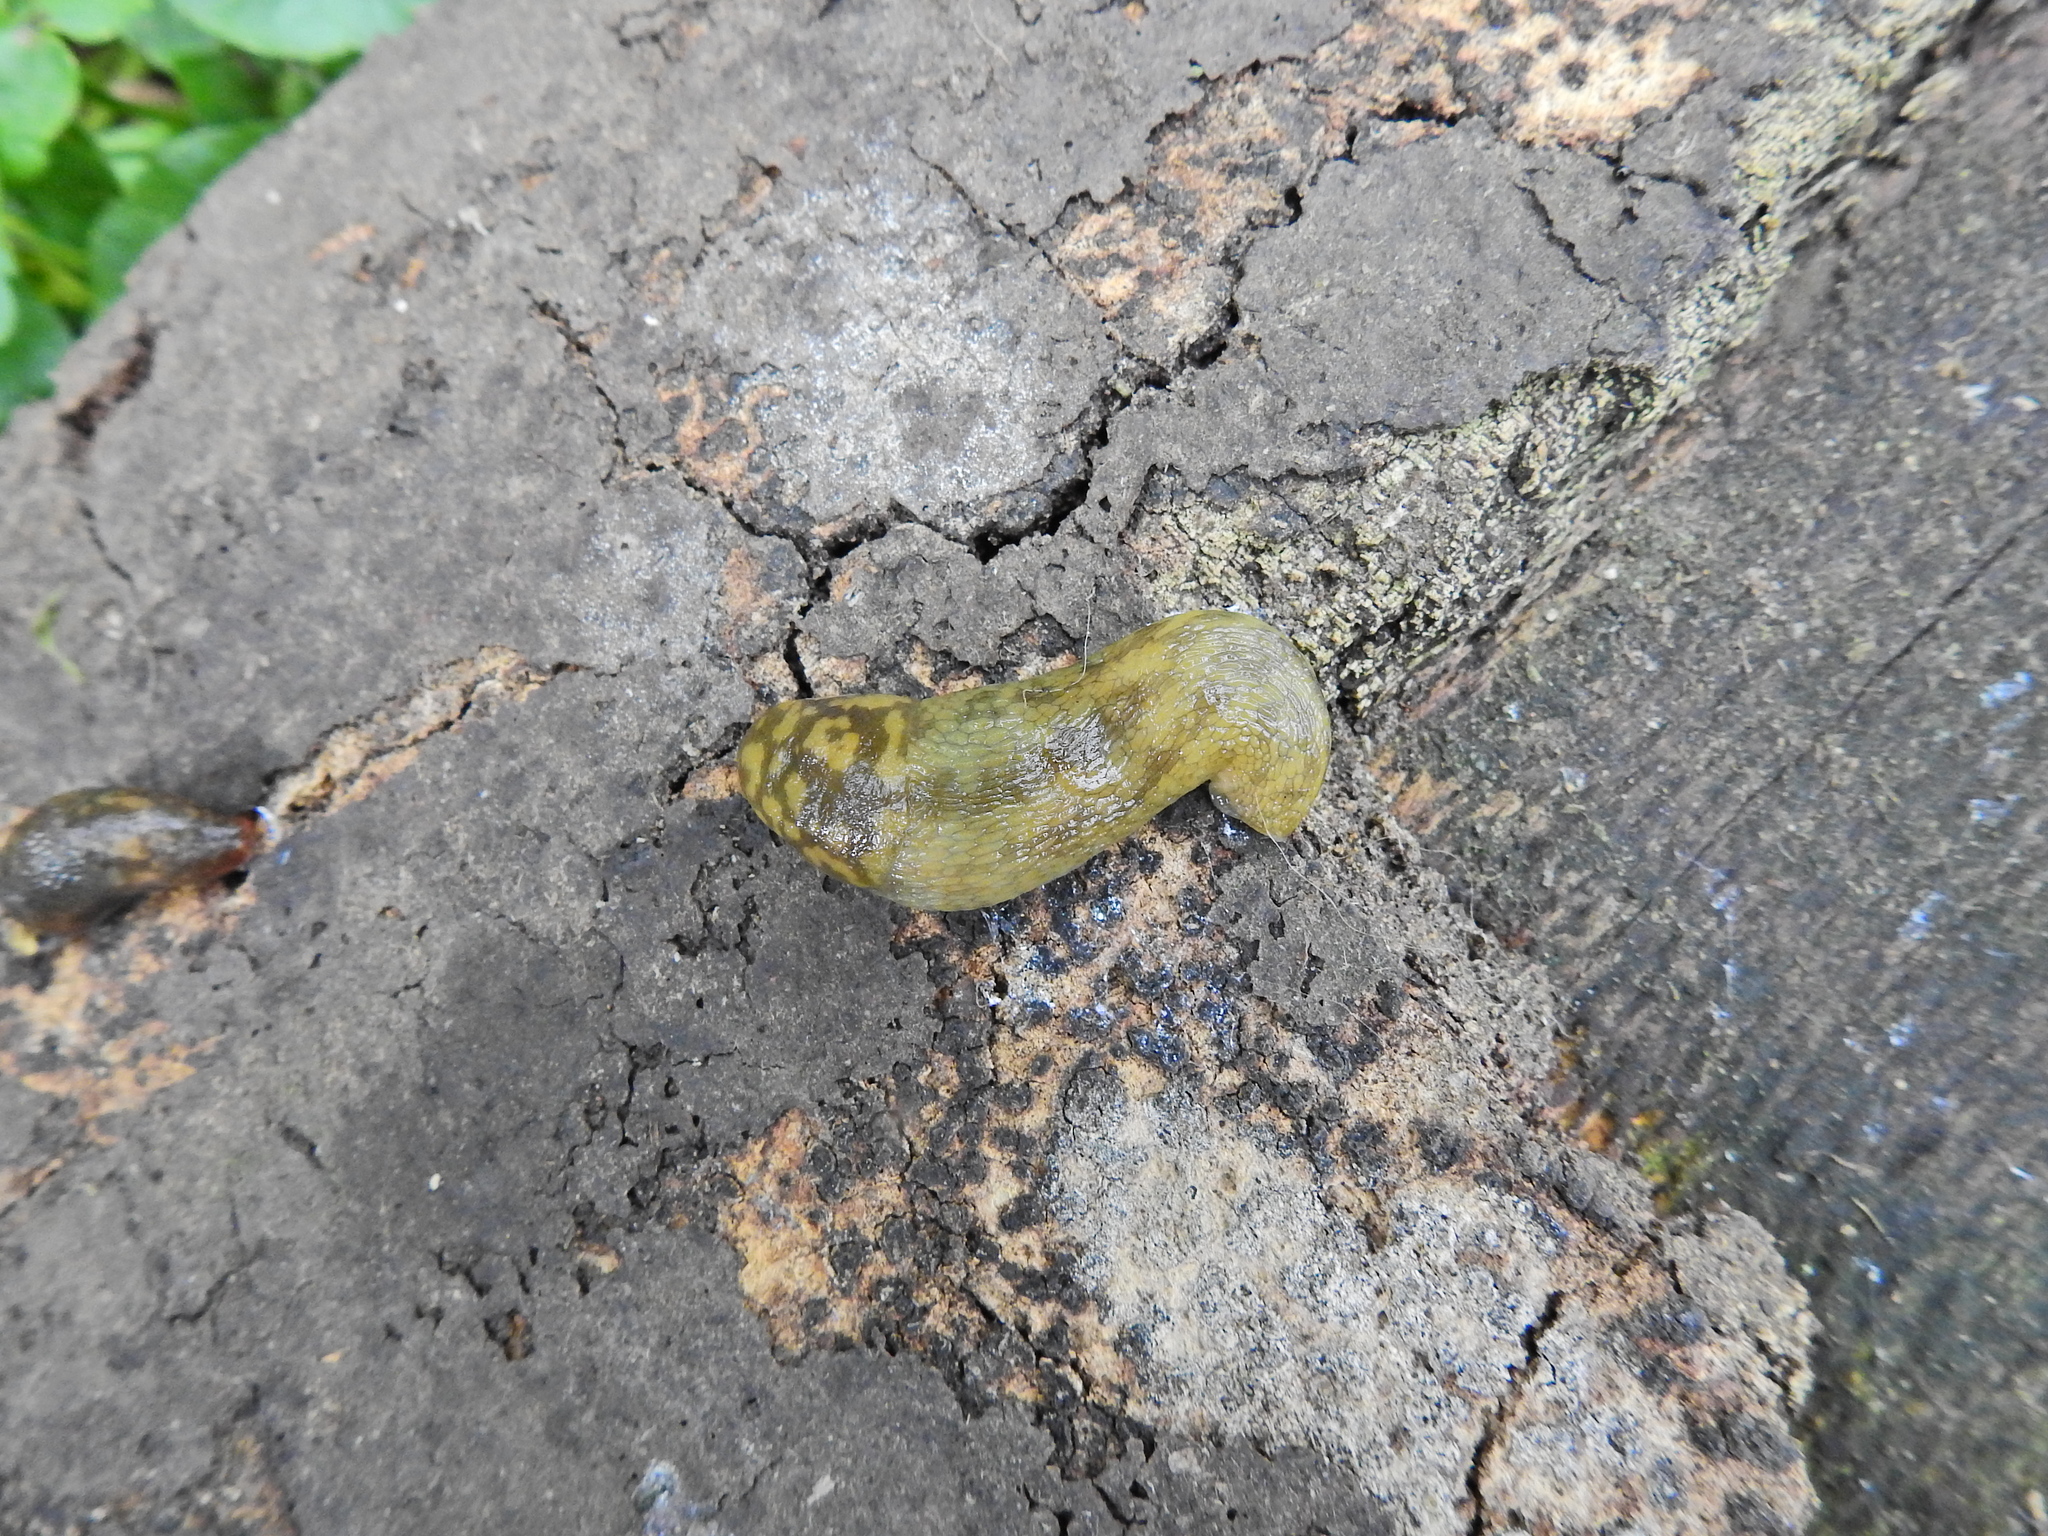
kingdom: Animalia
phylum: Mollusca
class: Gastropoda
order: Stylommatophora
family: Limacidae
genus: Limacus
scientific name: Limacus maculatus
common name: Irish yellow slug
